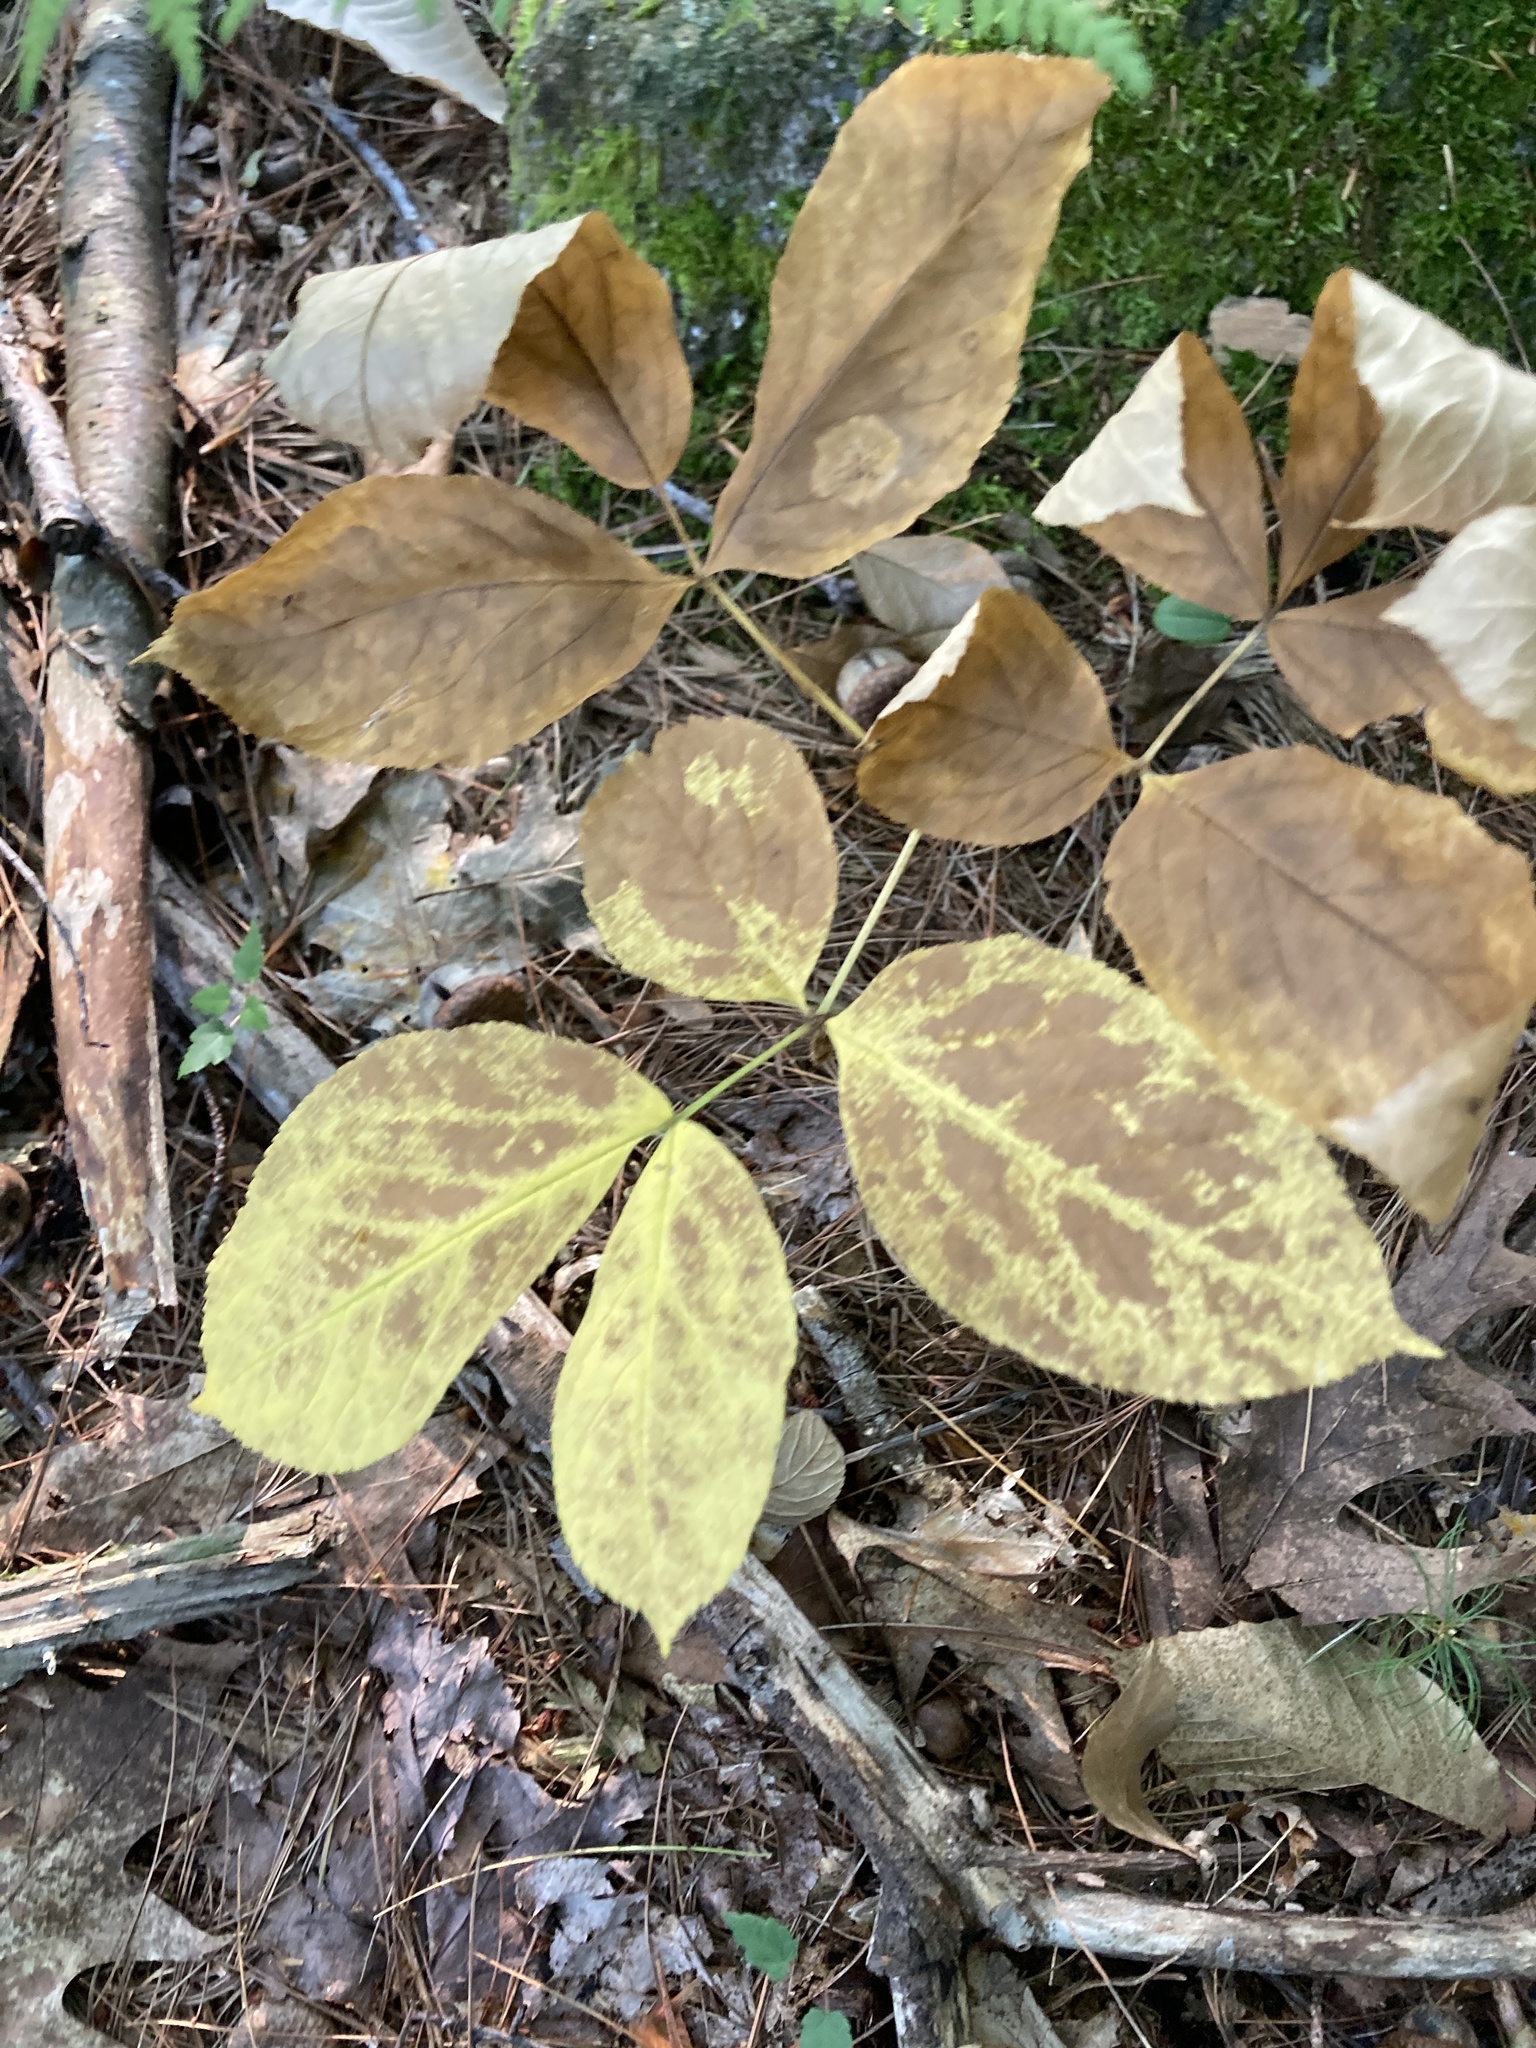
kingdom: Plantae
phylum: Tracheophyta
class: Magnoliopsida
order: Apiales
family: Araliaceae
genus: Aralia
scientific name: Aralia nudicaulis
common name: Wild sarsaparilla
